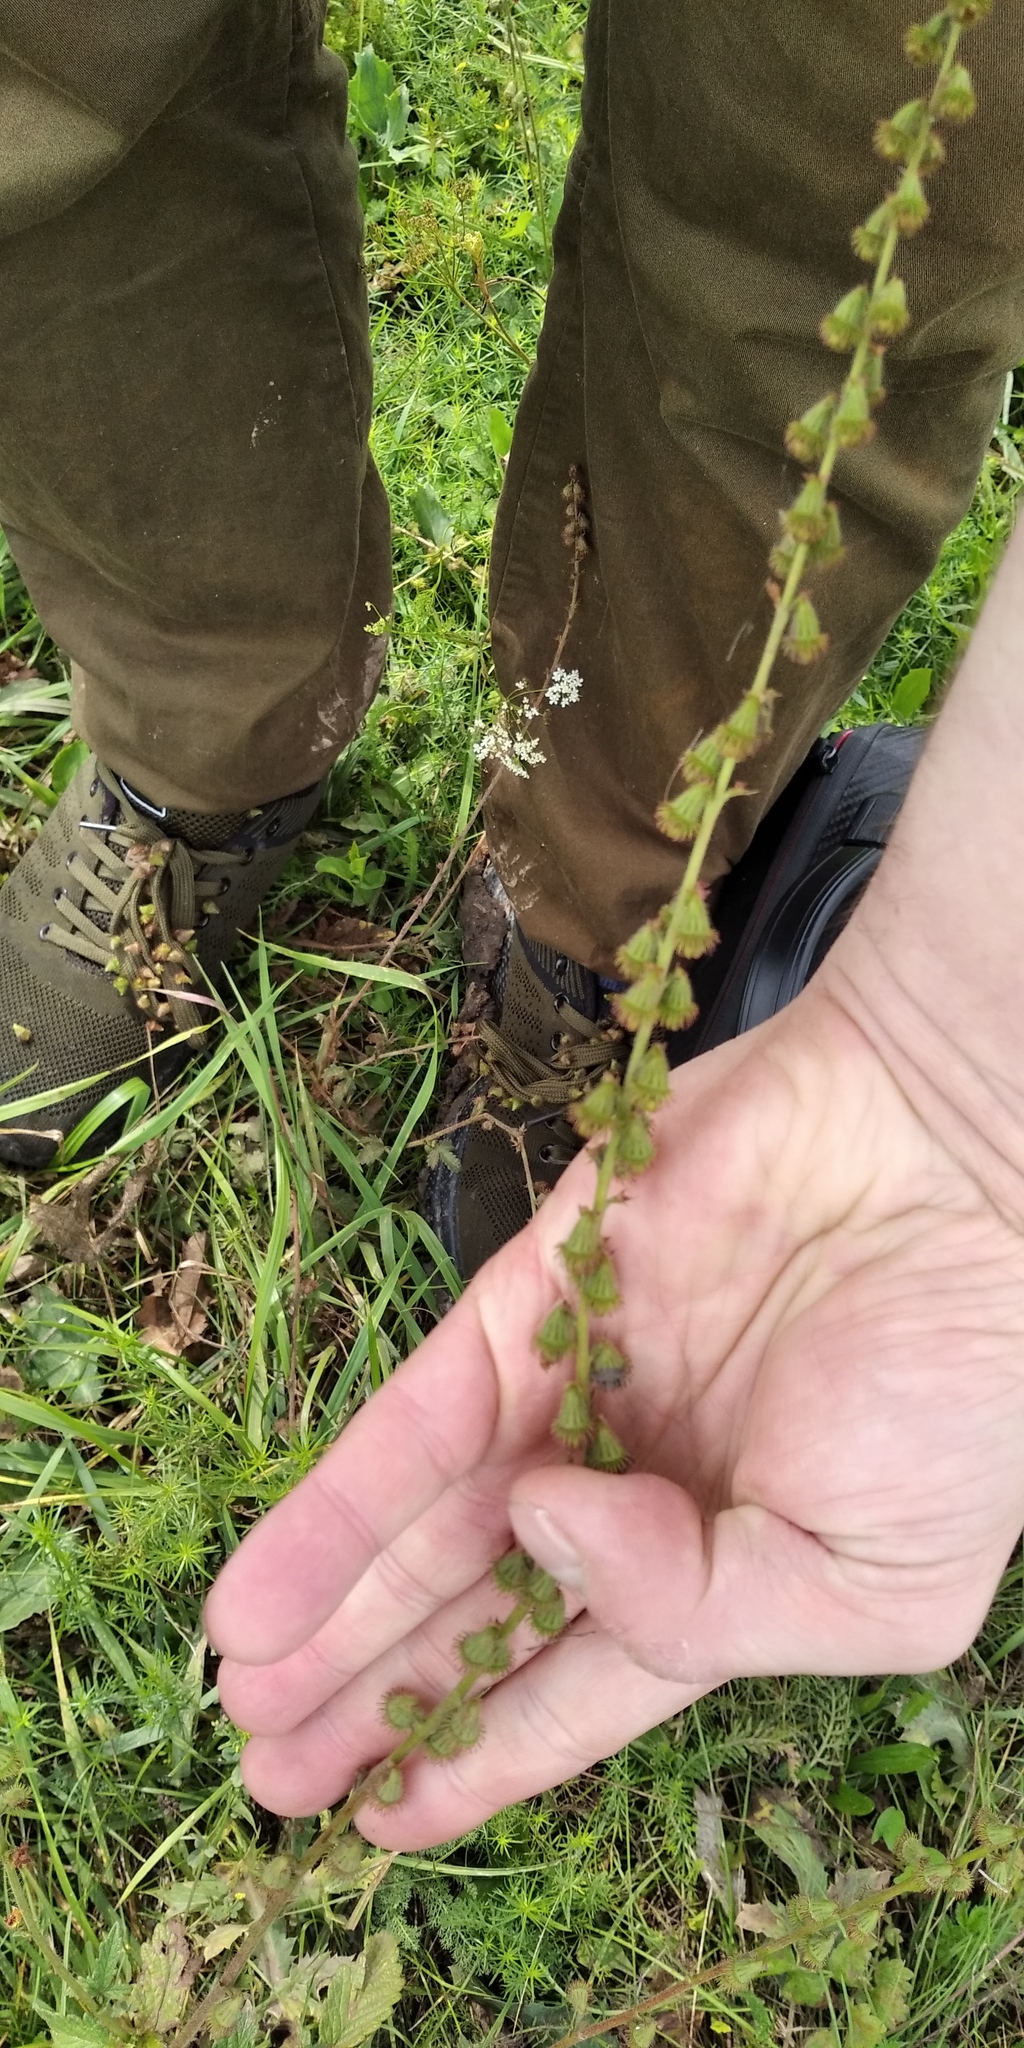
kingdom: Plantae
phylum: Tracheophyta
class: Magnoliopsida
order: Rosales
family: Rosaceae
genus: Agrimonia
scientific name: Agrimonia eupatoria
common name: Agrimony
